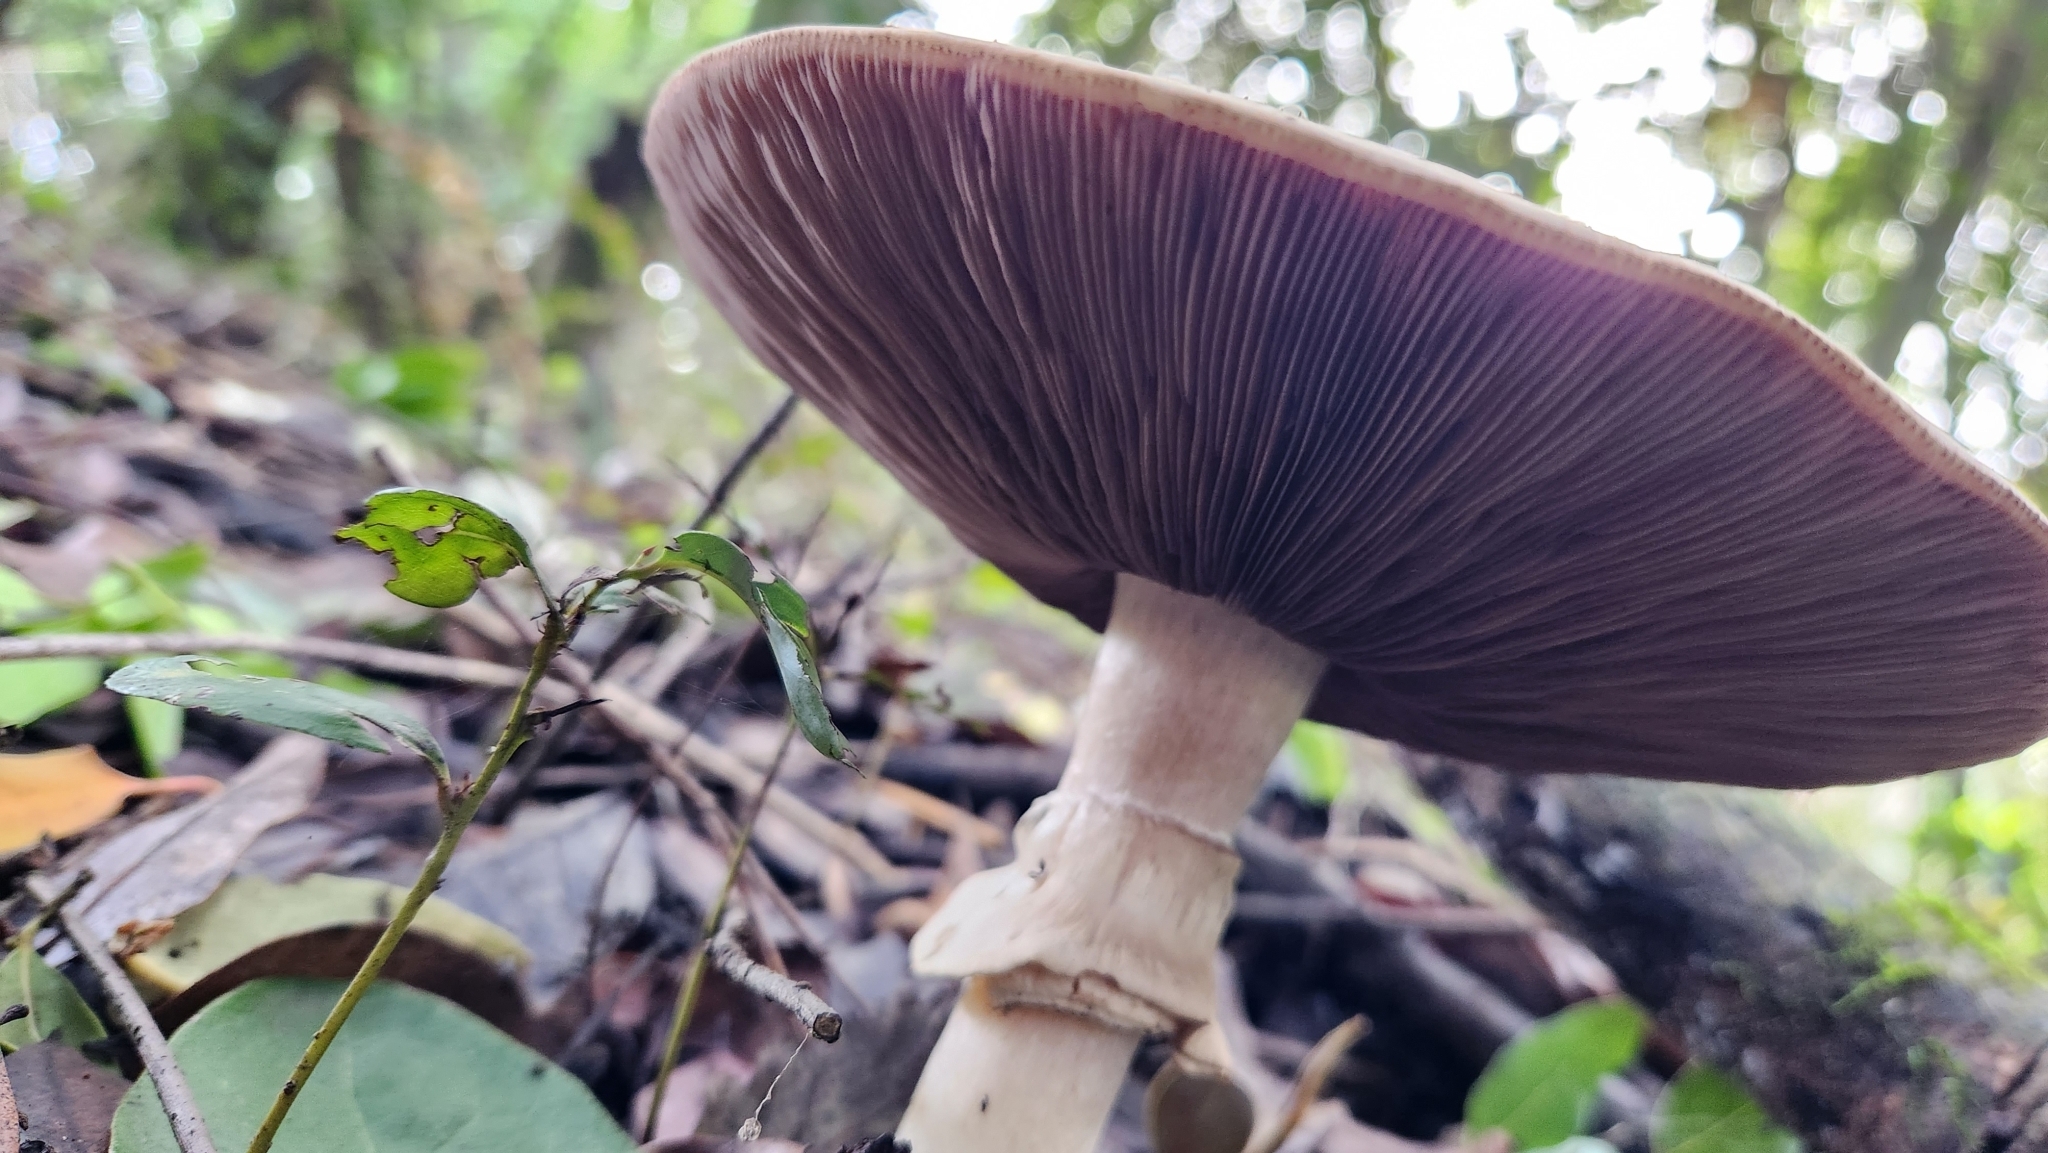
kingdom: Fungi
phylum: Basidiomycota
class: Agaricomycetes
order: Agaricales
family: Agaricaceae
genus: Agaricus
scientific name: Agaricus moelleri
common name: Inky mushroom
